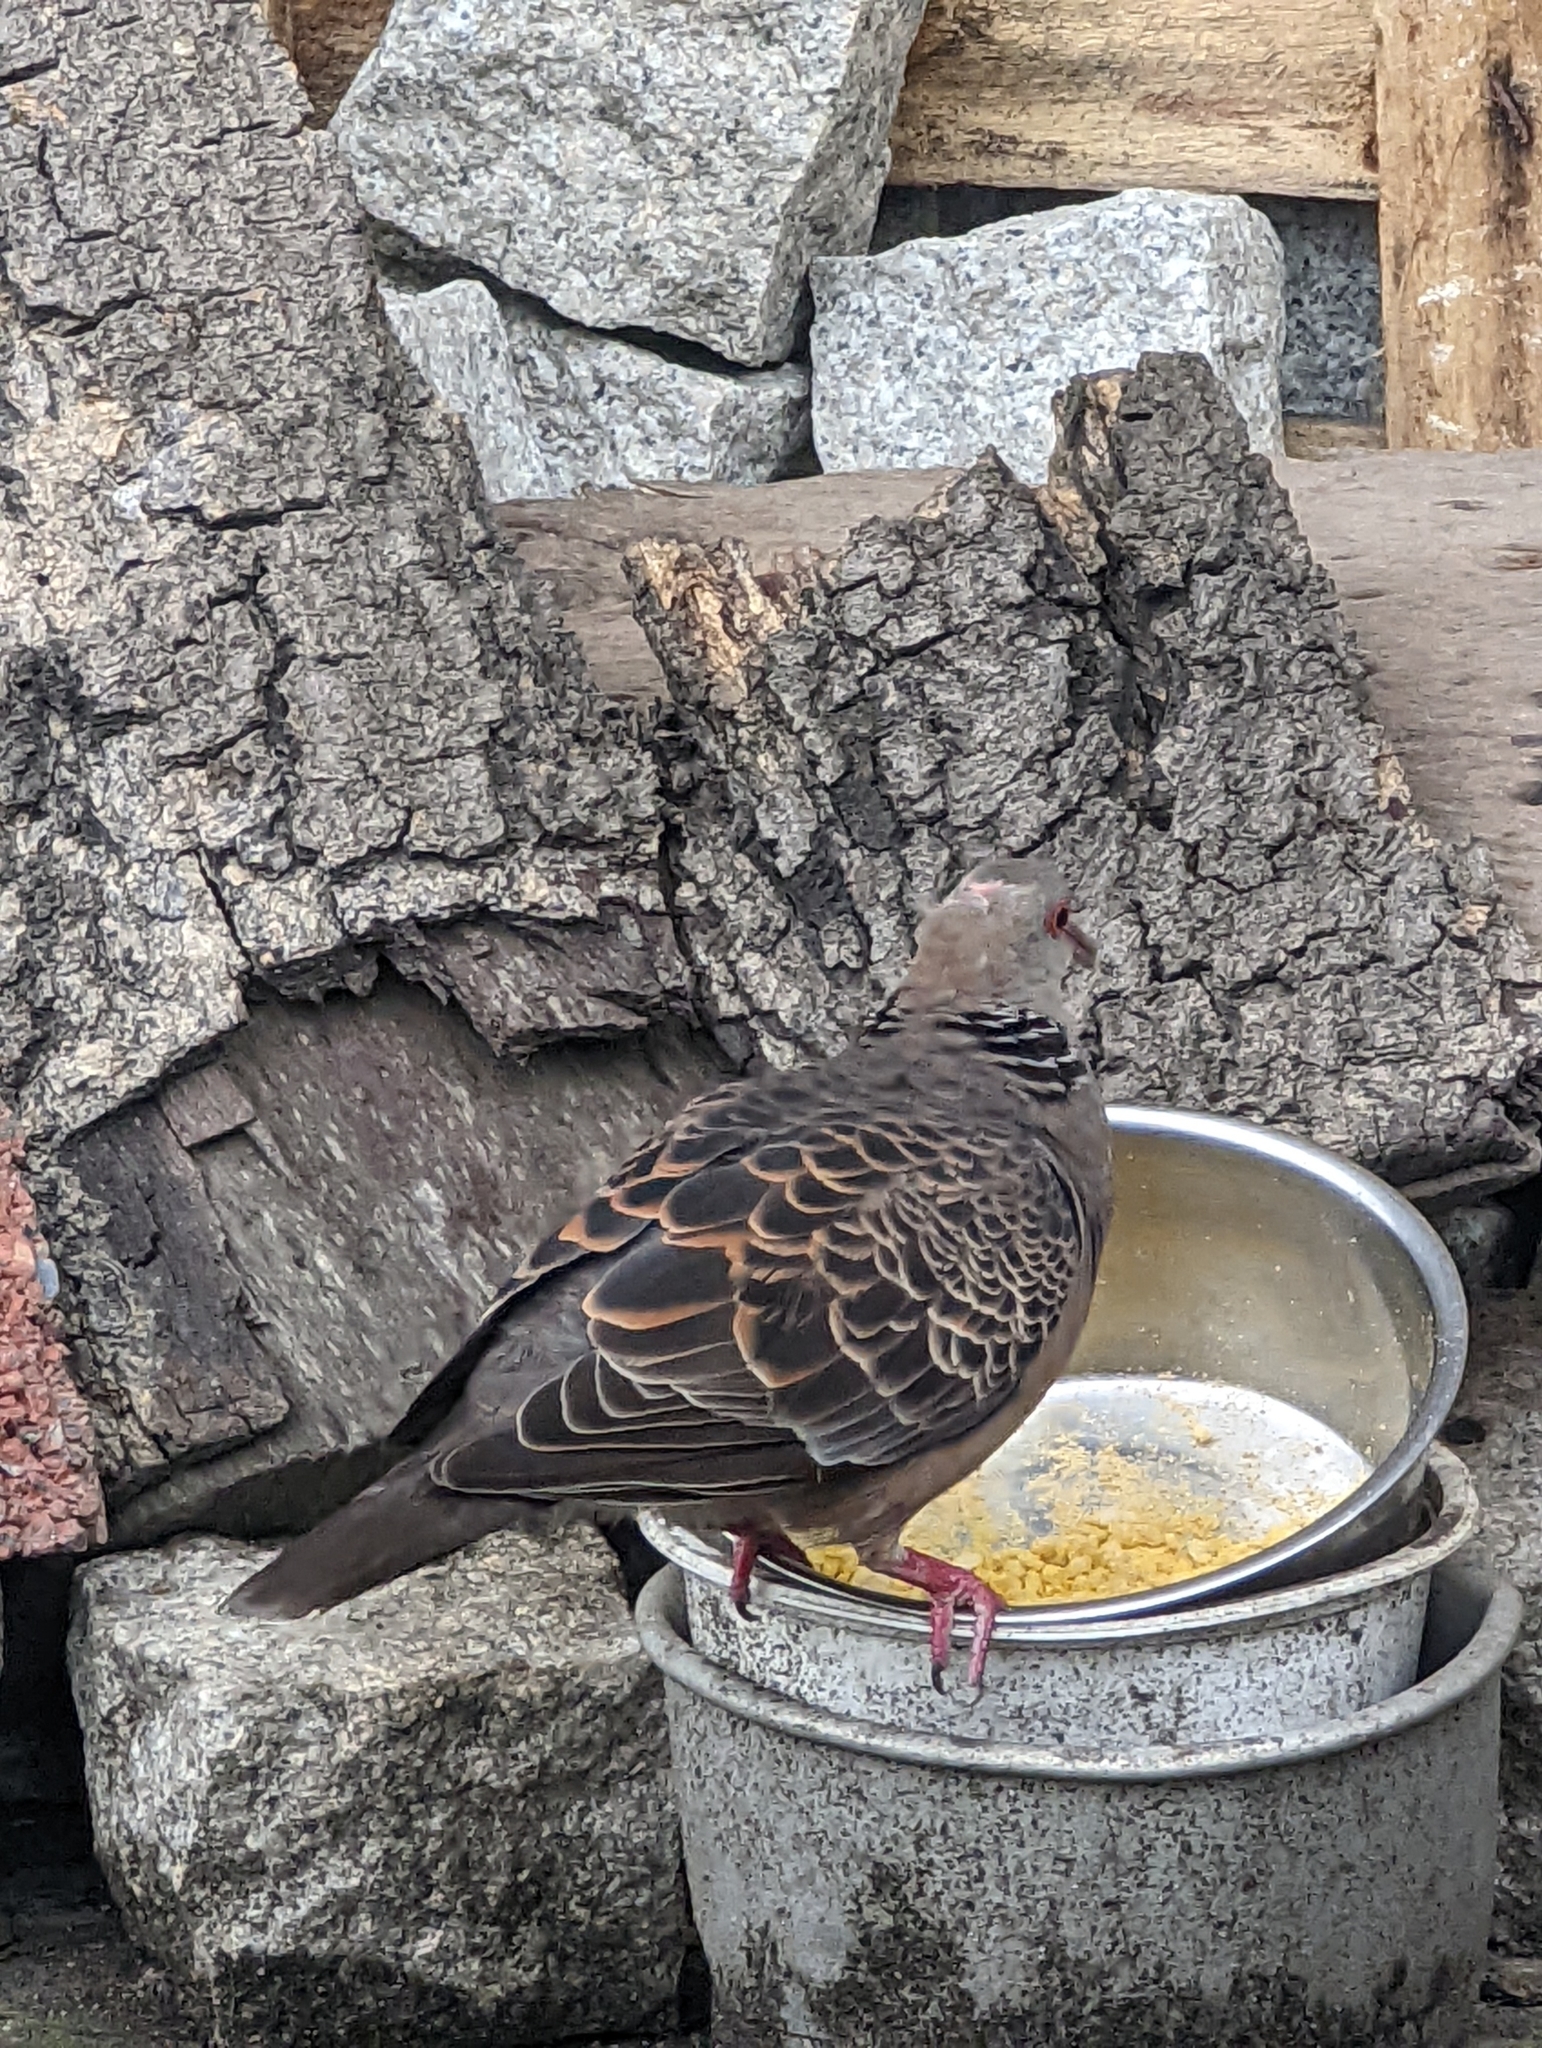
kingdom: Animalia
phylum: Chordata
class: Aves
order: Columbiformes
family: Columbidae
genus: Streptopelia
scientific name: Streptopelia orientalis
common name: Oriental turtle dove
